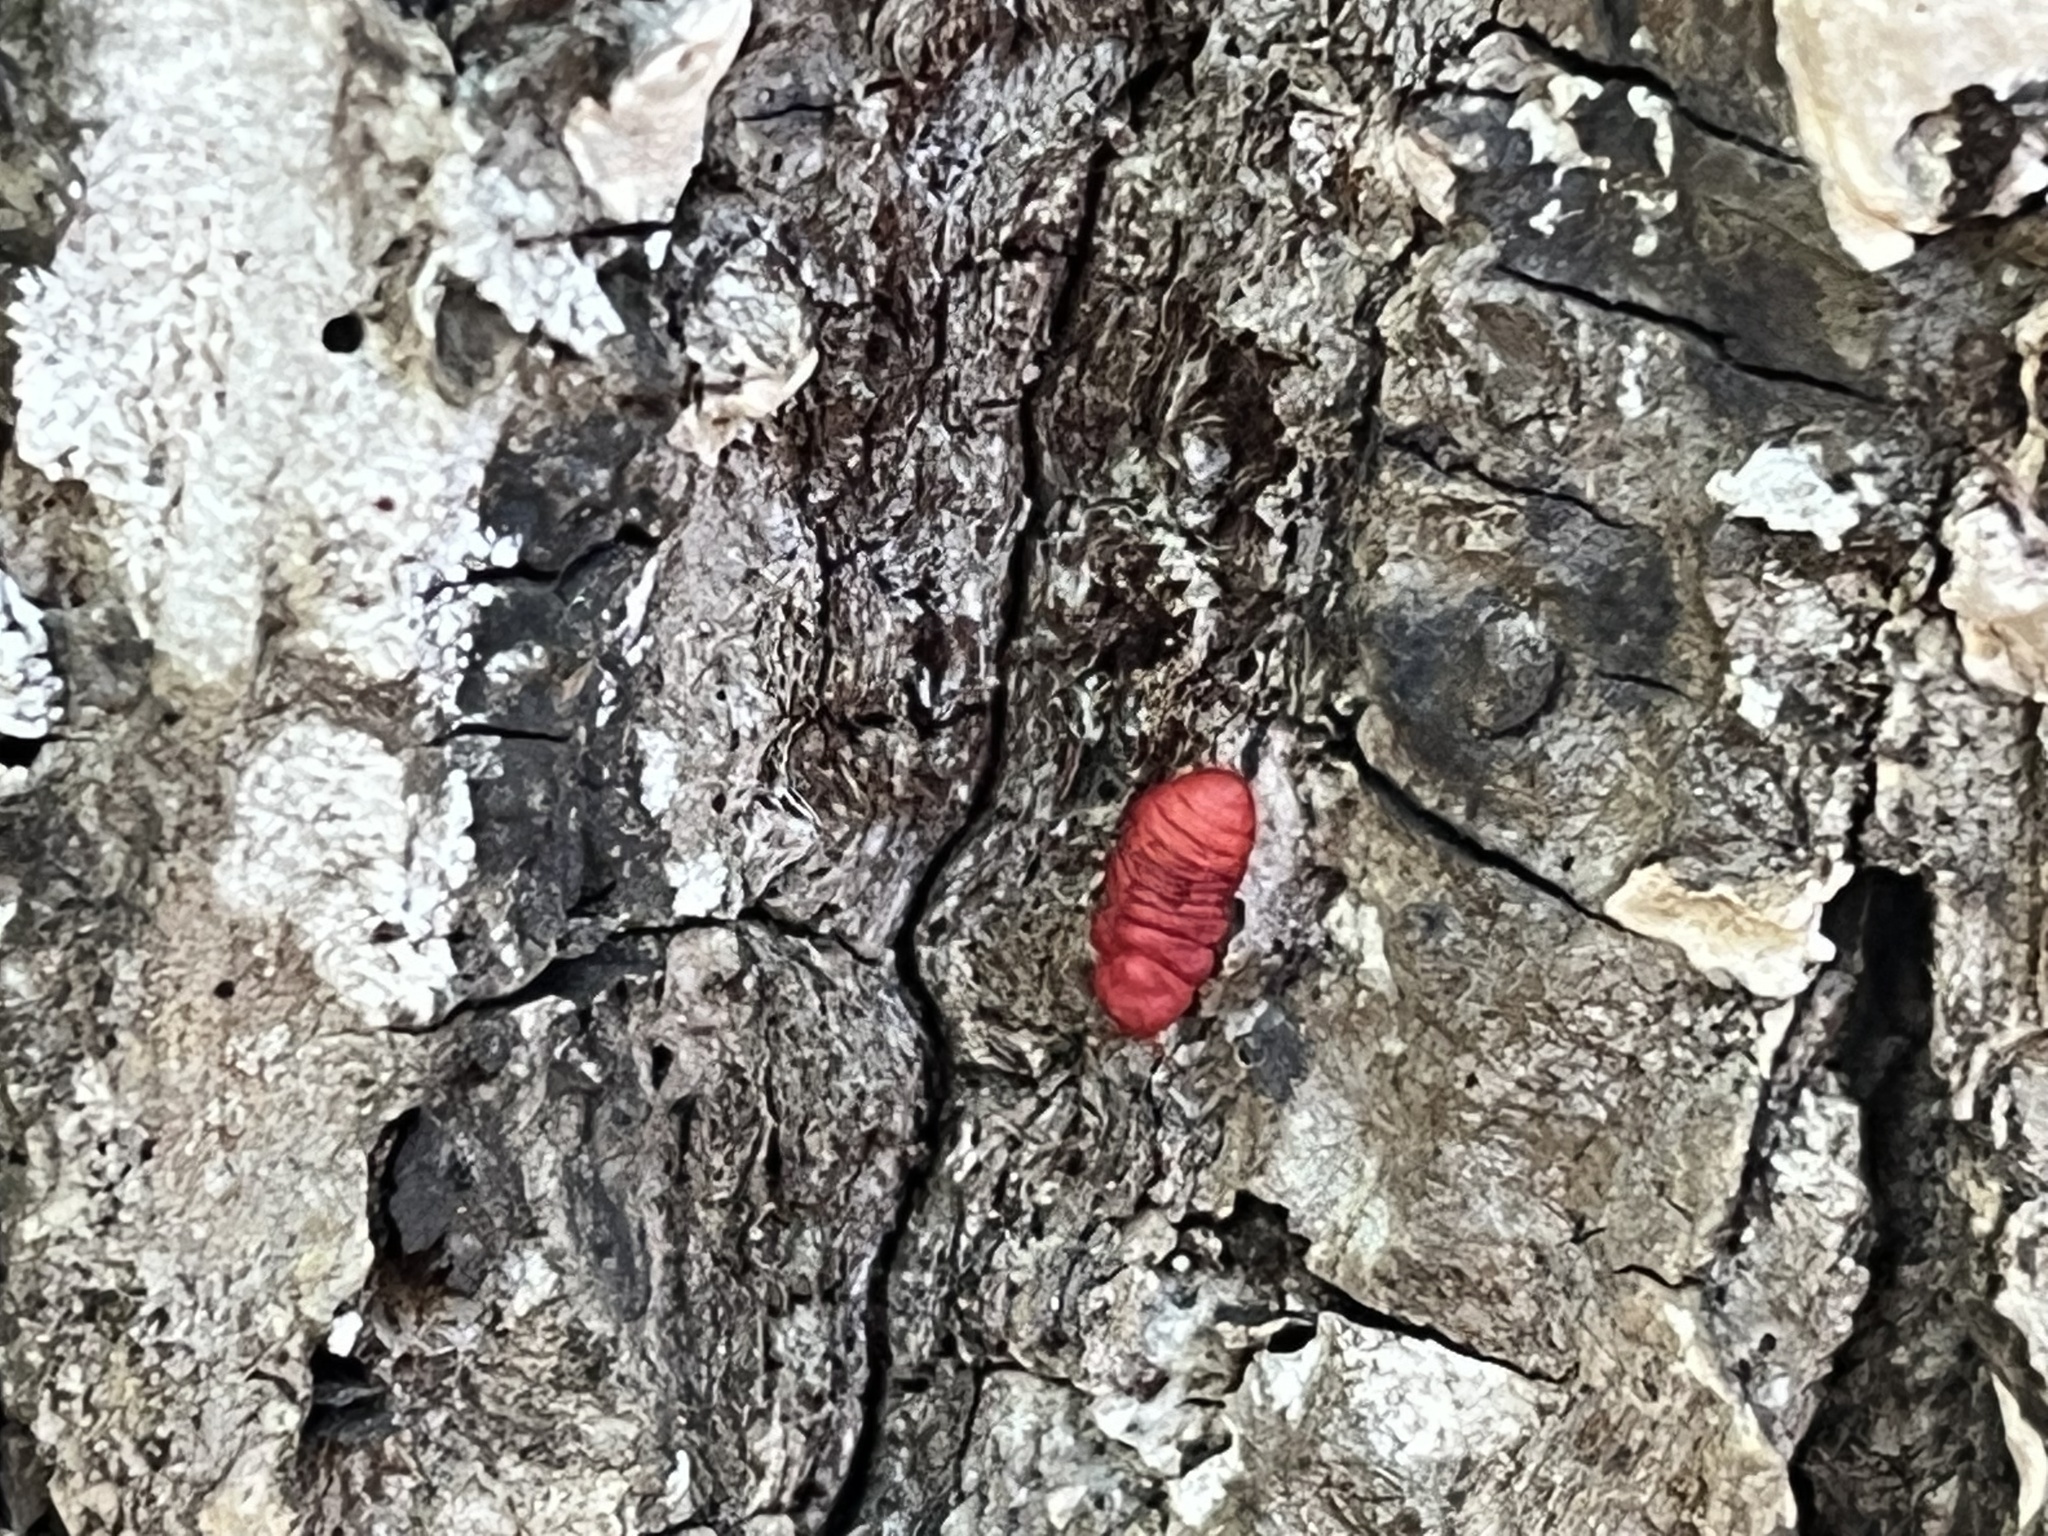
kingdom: Animalia
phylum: Arthropoda
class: Insecta
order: Hemiptera
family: Margarodidae
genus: Neosteingelia
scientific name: Neosteingelia texana
